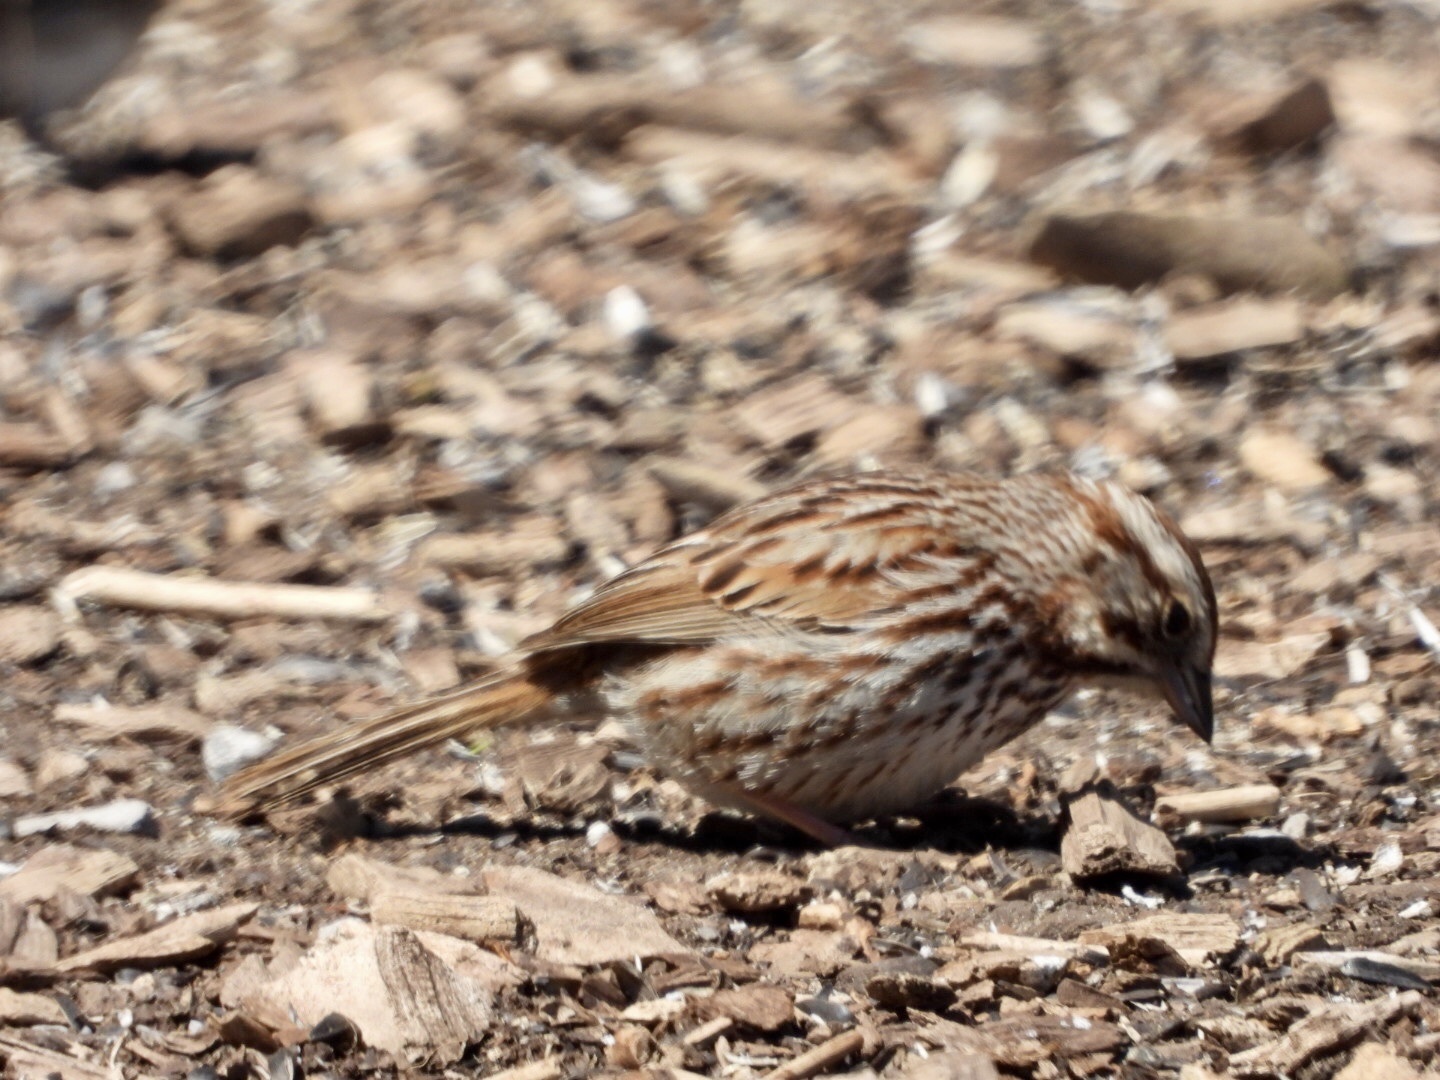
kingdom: Animalia
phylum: Chordata
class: Aves
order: Passeriformes
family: Passerellidae
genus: Melospiza
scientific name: Melospiza melodia
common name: Song sparrow
